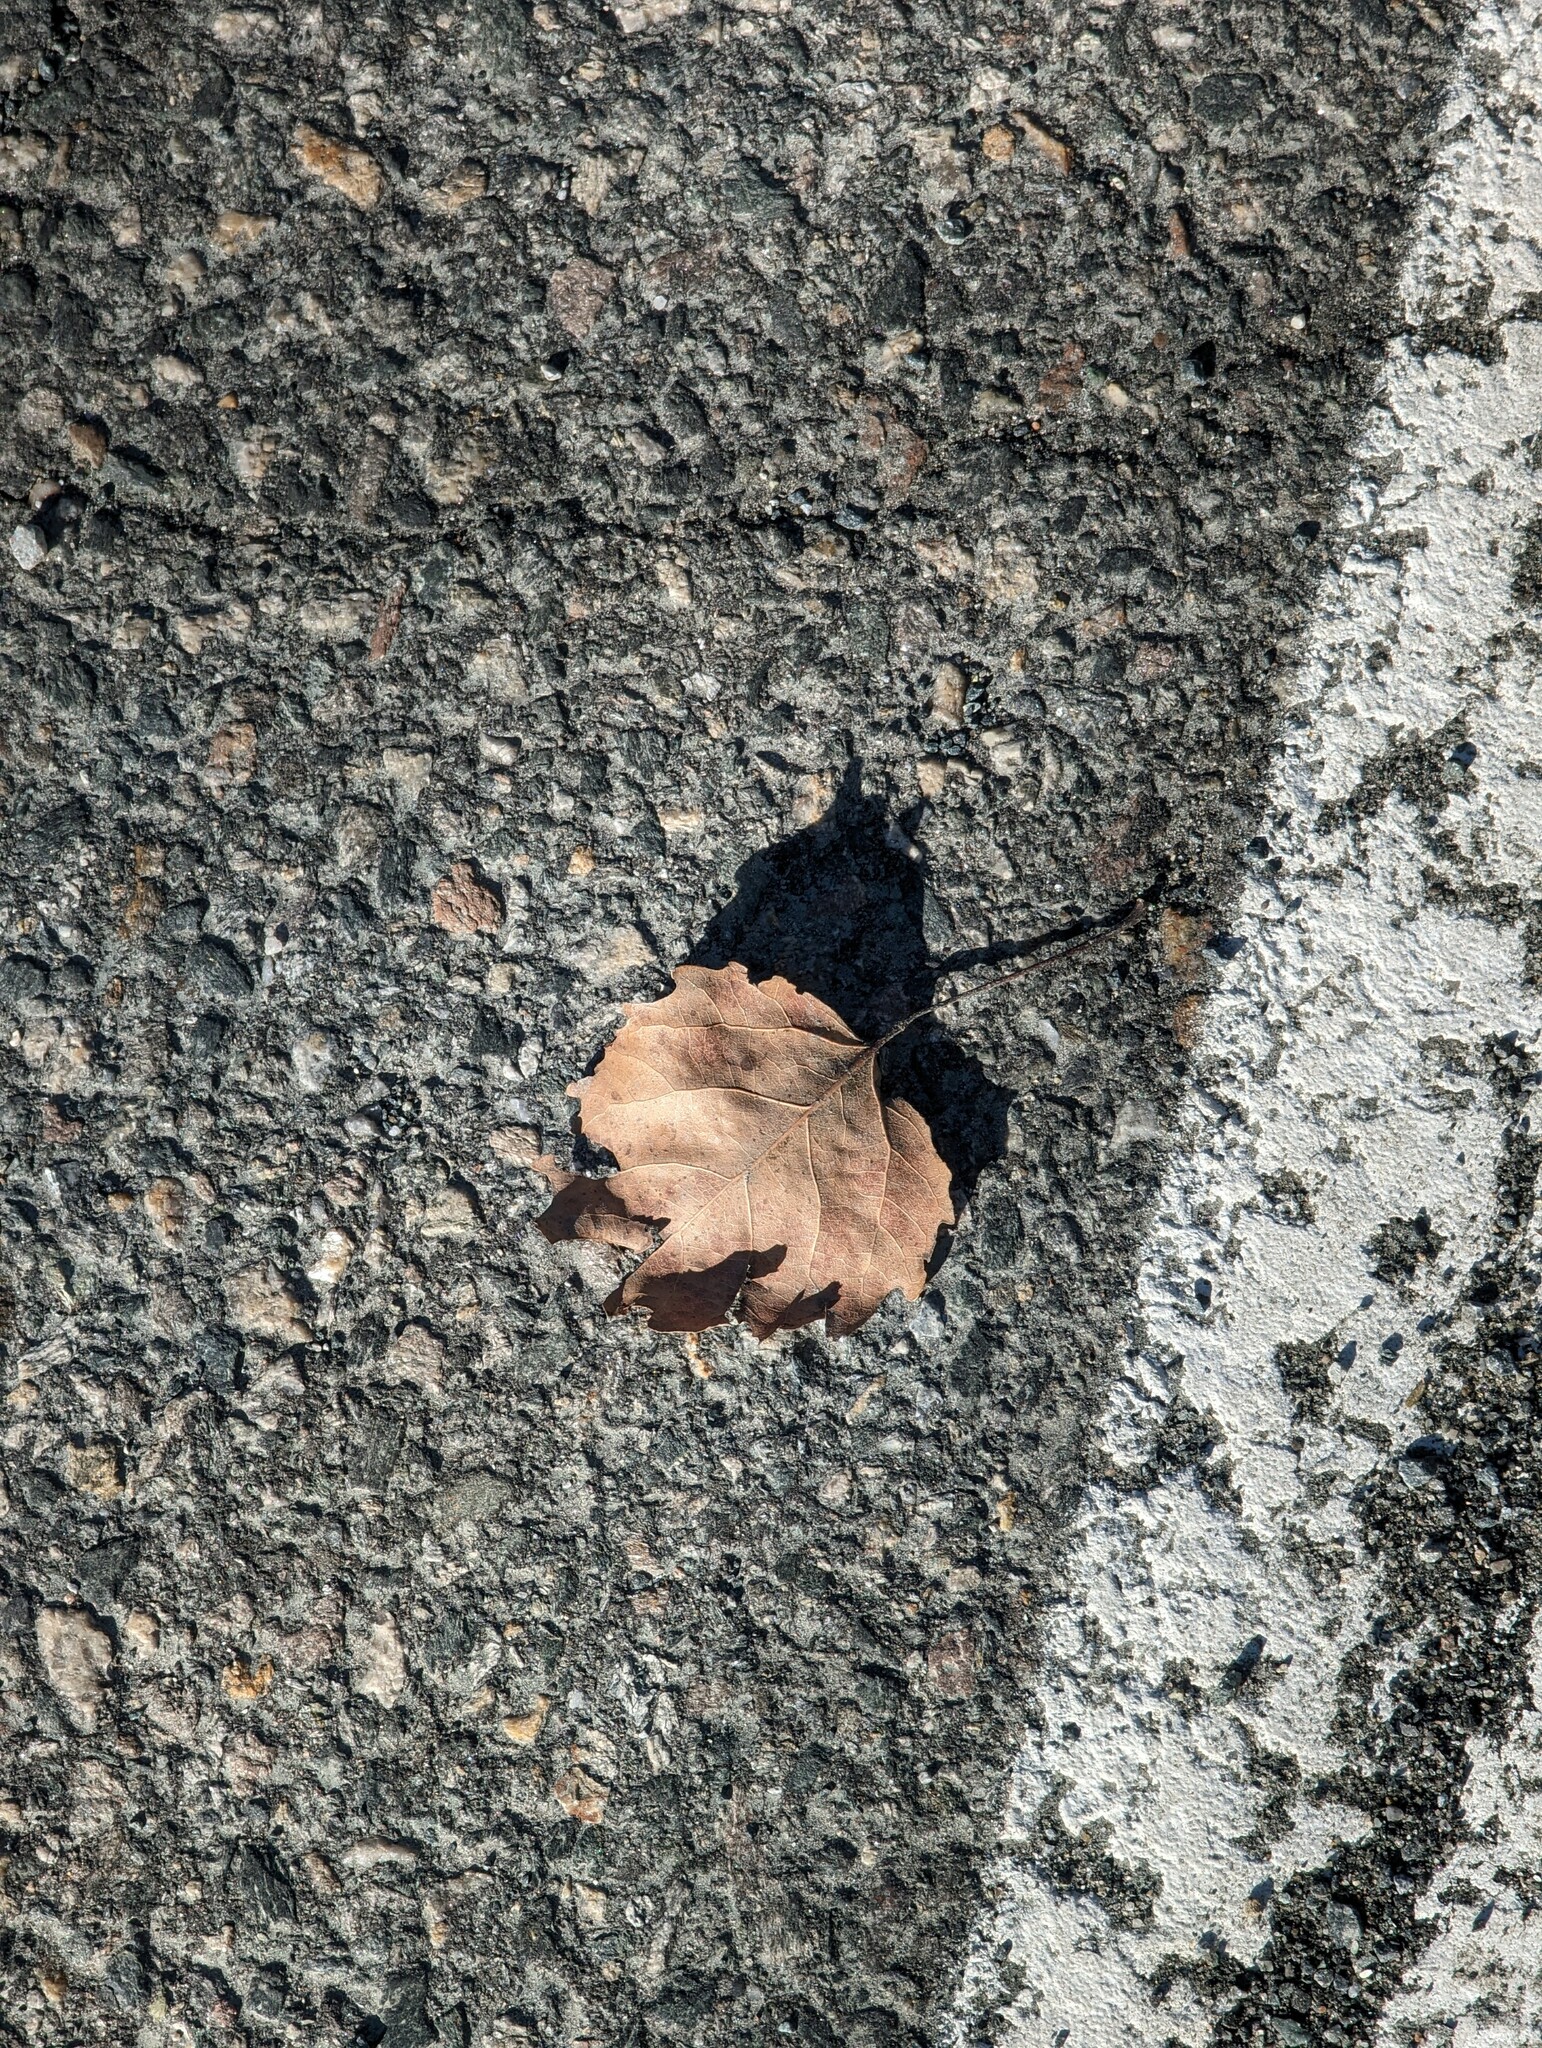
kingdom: Plantae
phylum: Tracheophyta
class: Magnoliopsida
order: Malpighiales
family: Salicaceae
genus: Populus
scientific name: Populus grandidentata
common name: Bigtooth aspen
